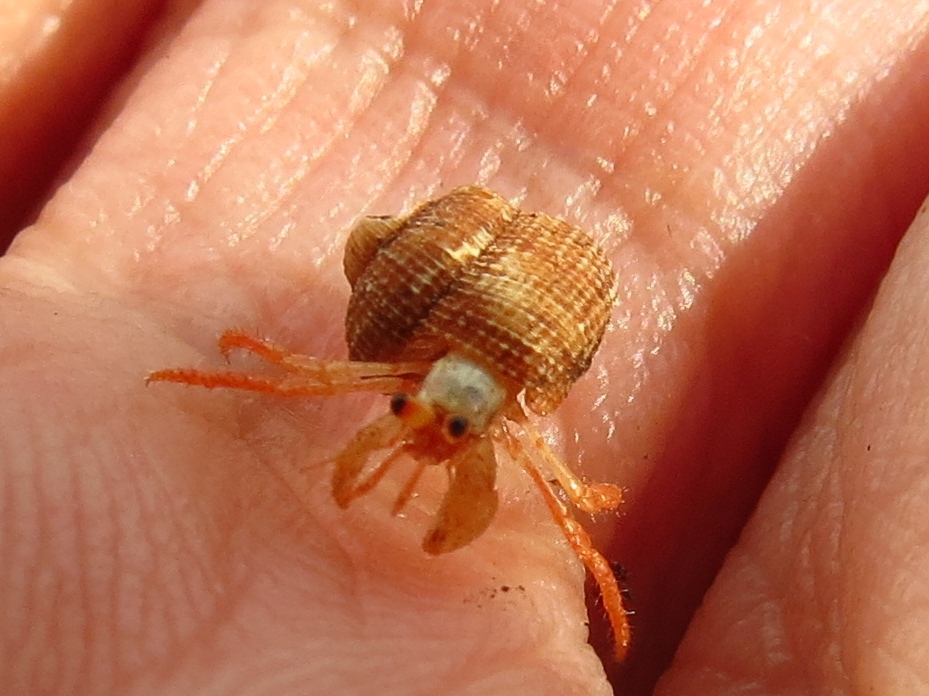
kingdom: Animalia
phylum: Arthropoda
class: Malacostraca
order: Decapoda
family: Coenobitidae
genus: Coenobita
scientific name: Coenobita clypeatus
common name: Caribbean hermit crab
